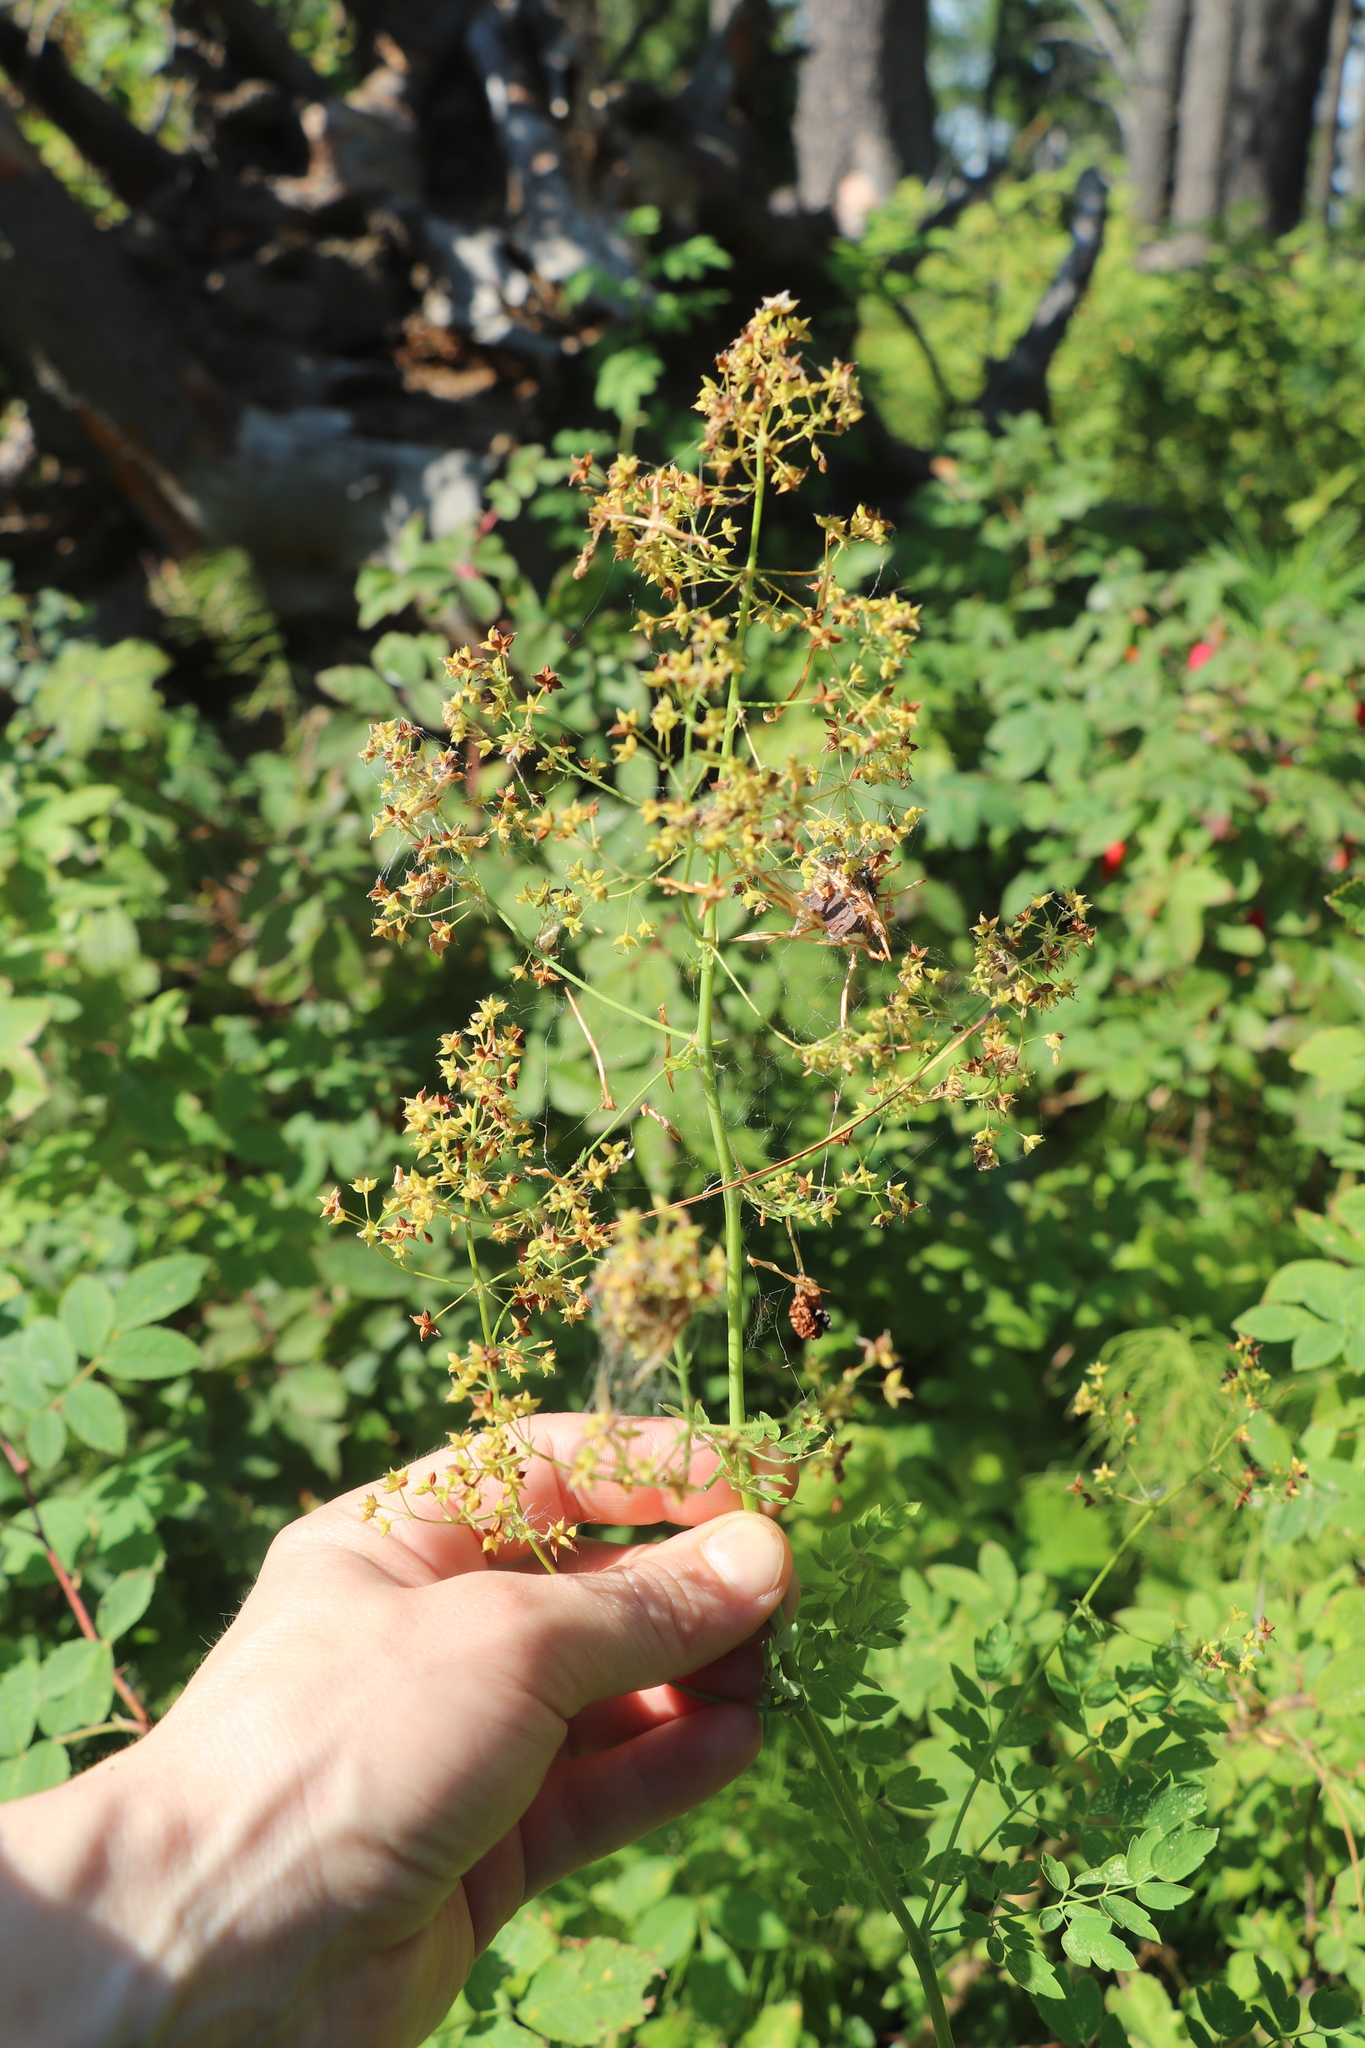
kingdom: Plantae
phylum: Tracheophyta
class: Magnoliopsida
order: Ranunculales
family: Ranunculaceae
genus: Thalictrum
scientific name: Thalictrum minus
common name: Lesser meadow-rue
